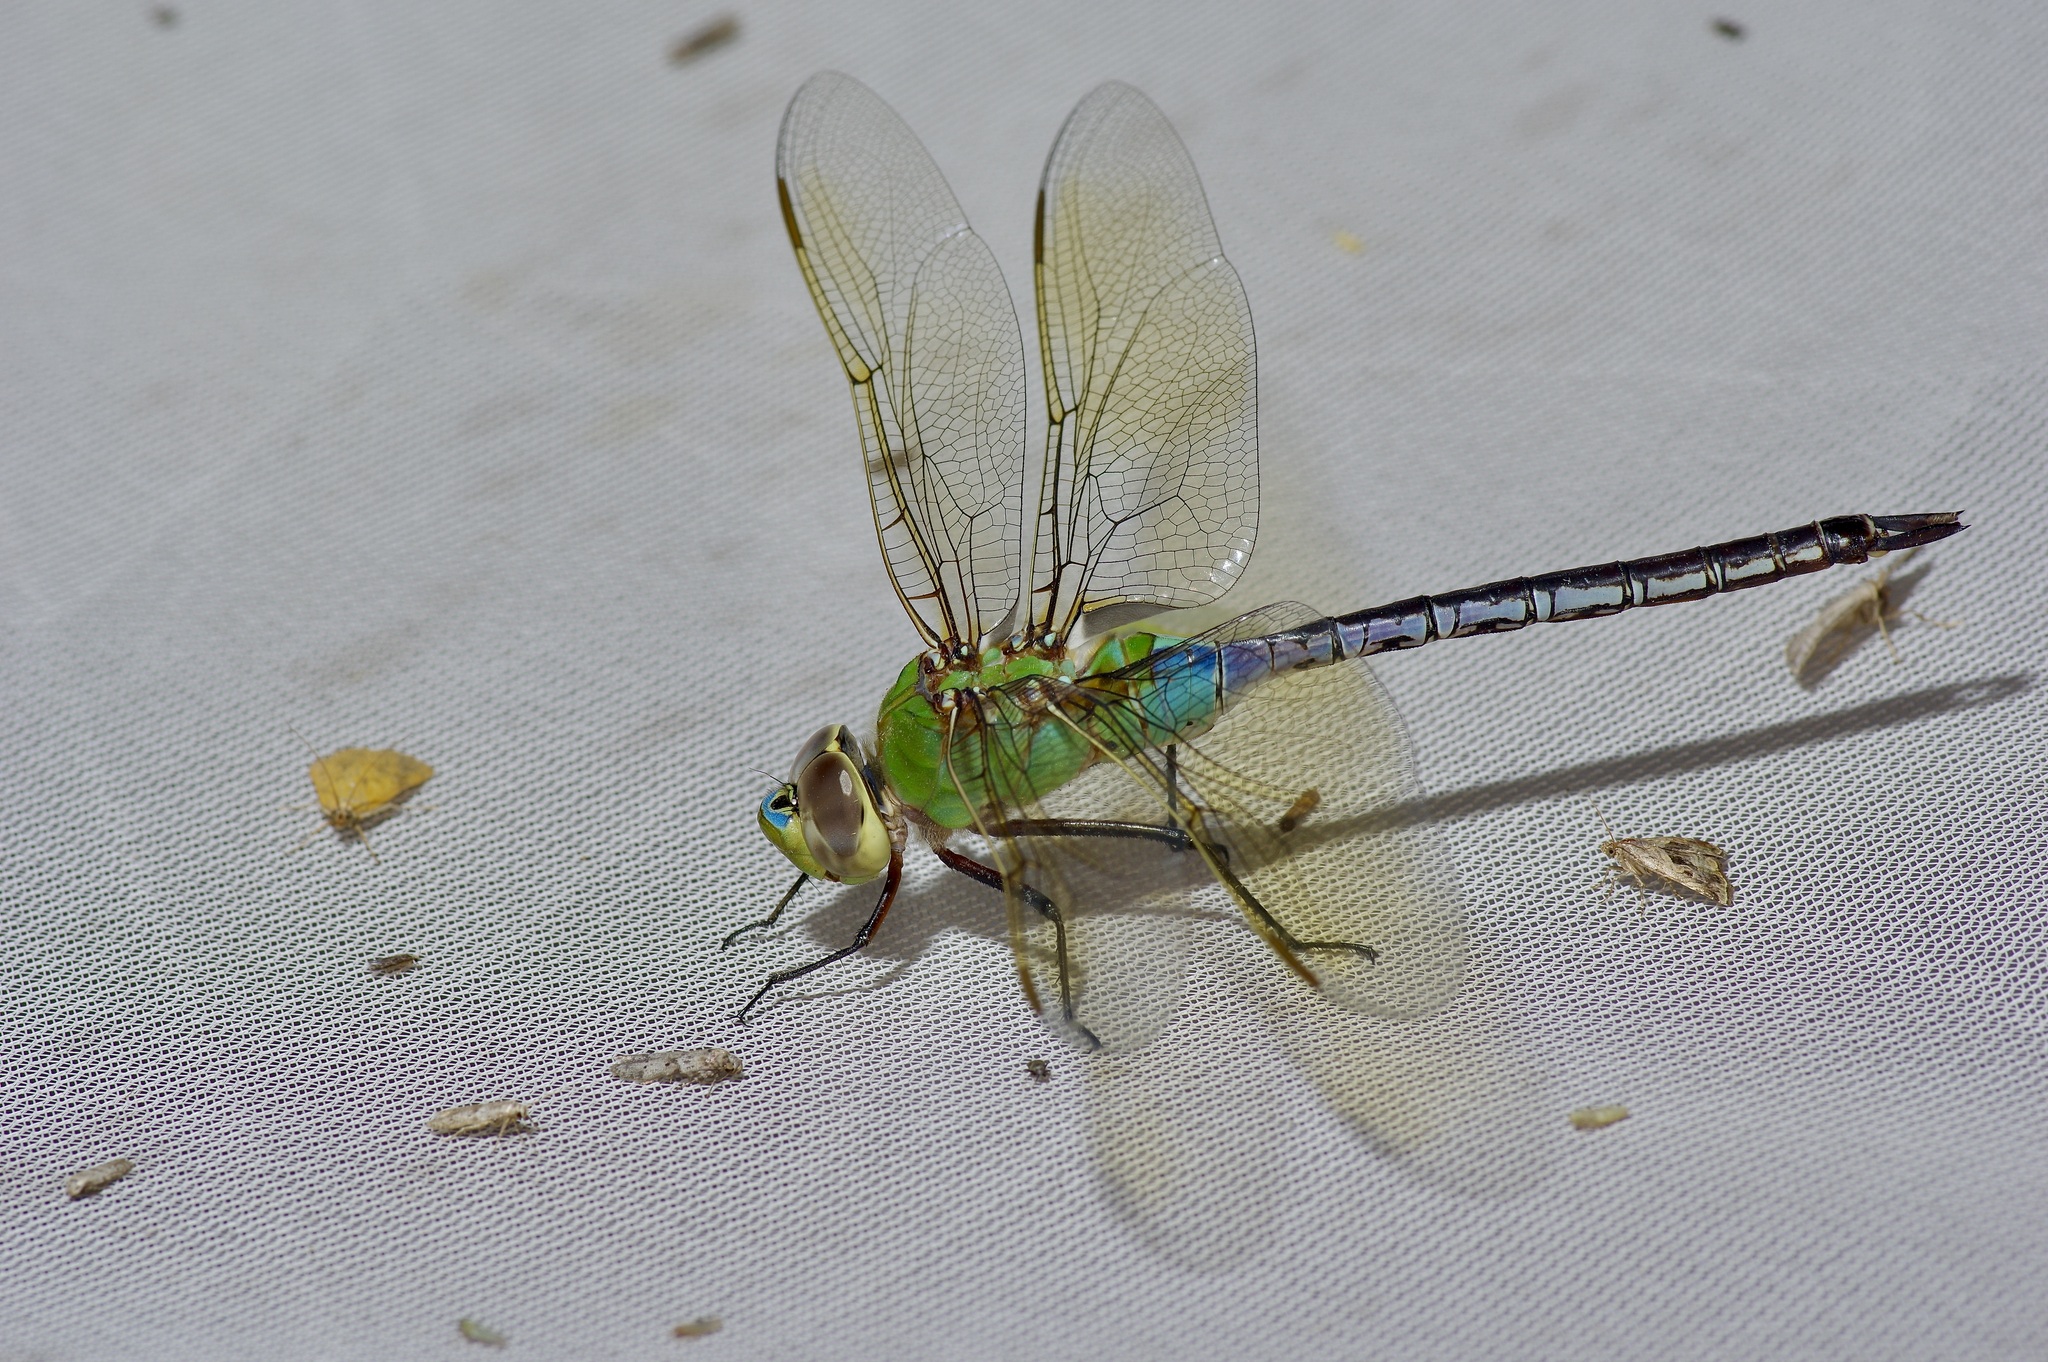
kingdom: Animalia
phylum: Arthropoda
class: Insecta
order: Odonata
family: Aeshnidae
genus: Anax
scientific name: Anax junius
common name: Common green darner
